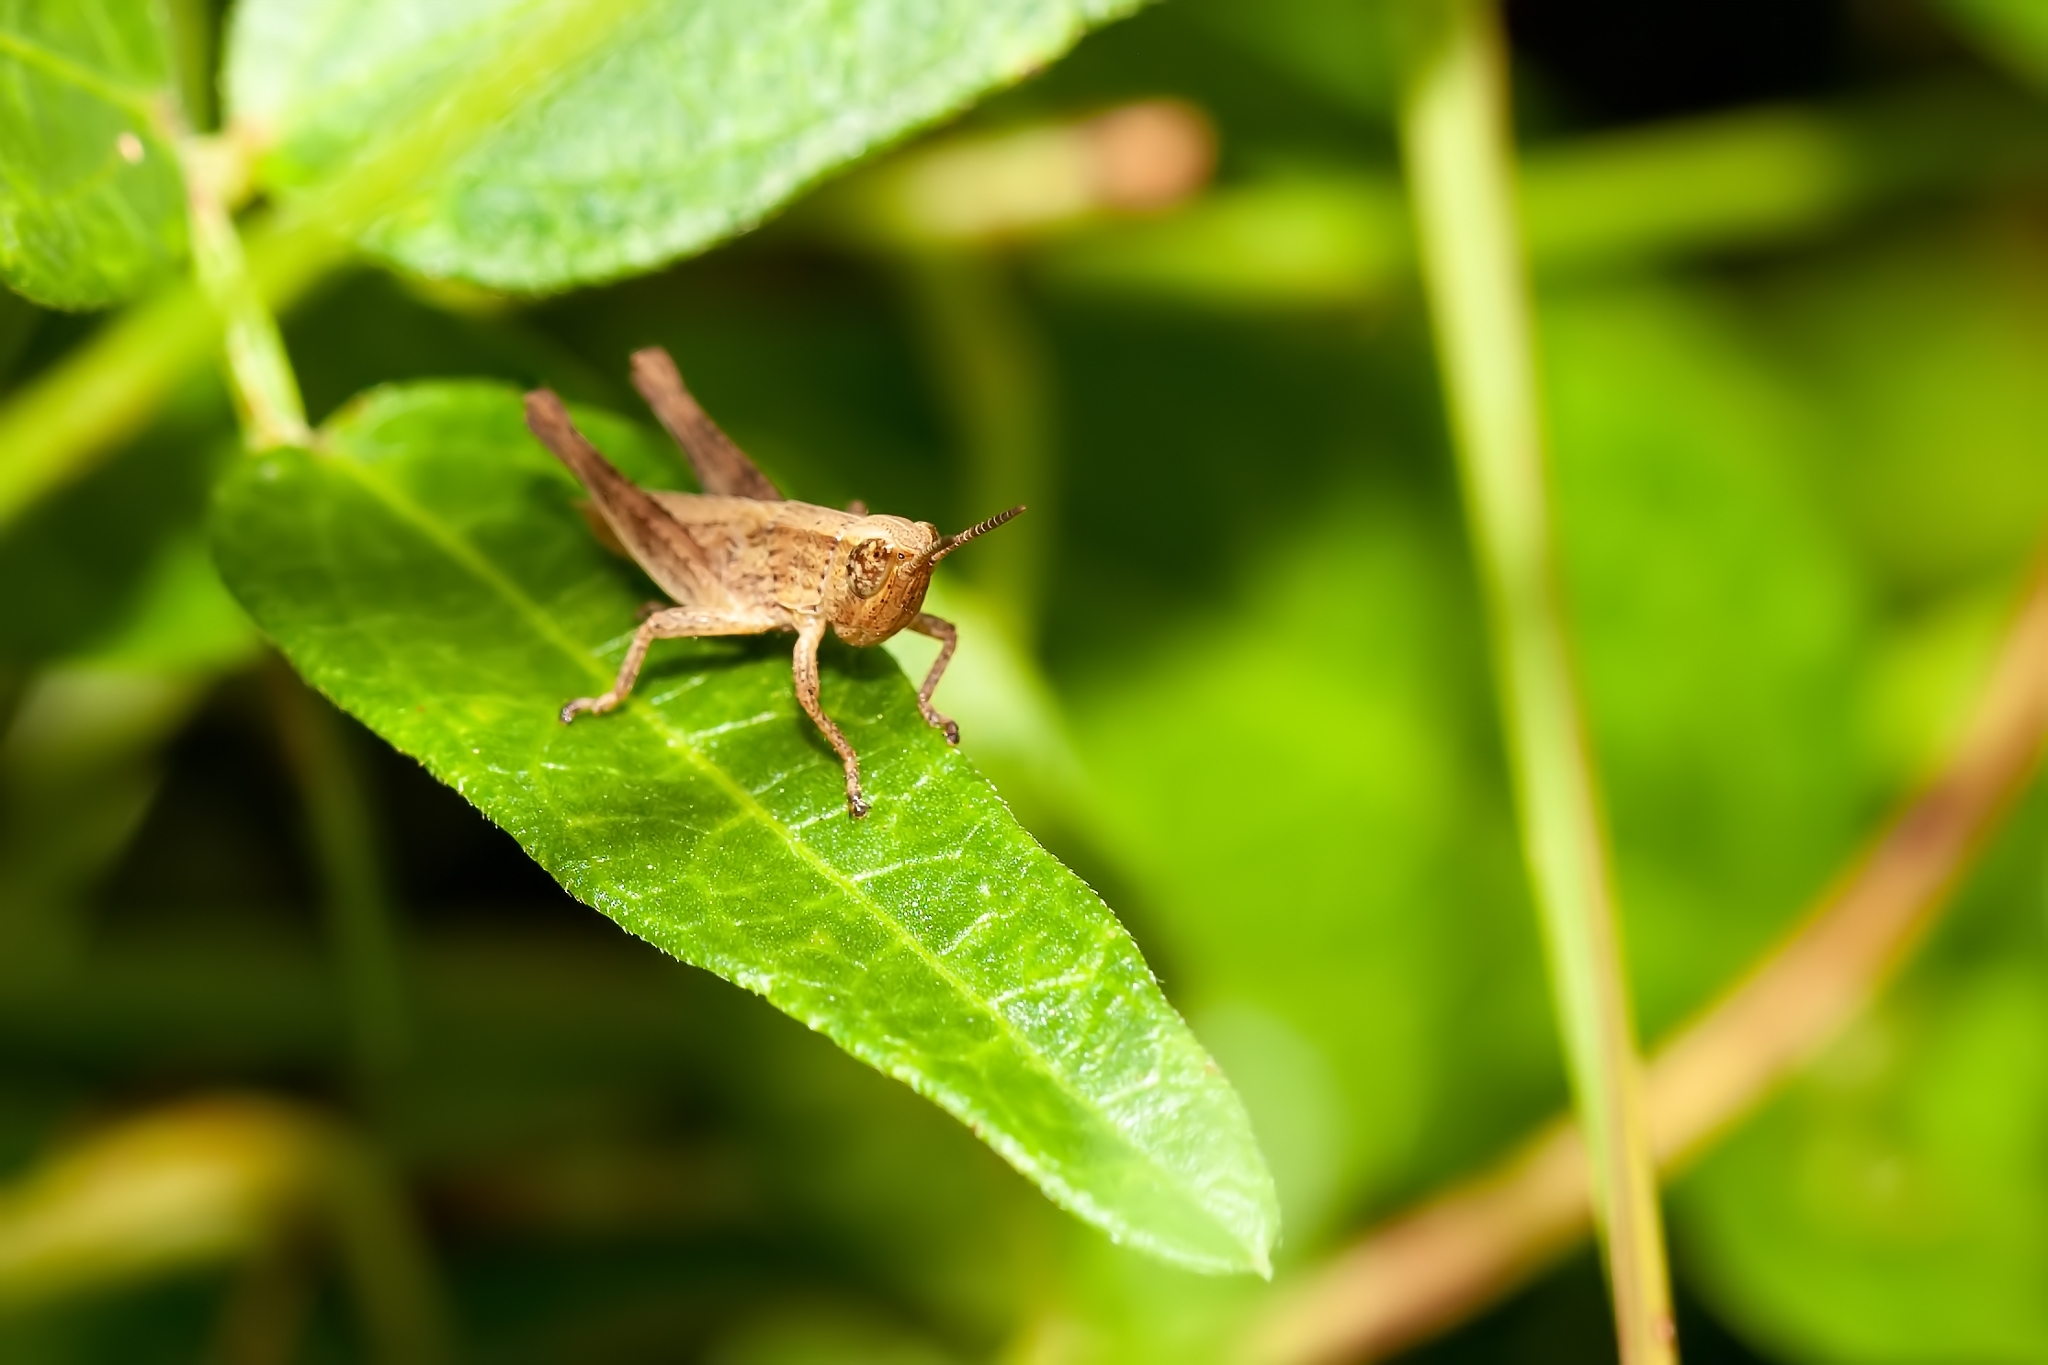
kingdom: Animalia
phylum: Arthropoda
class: Insecta
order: Orthoptera
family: Acrididae
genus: Dichromorpha
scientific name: Dichromorpha viridis
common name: Short-winged green grasshopper
